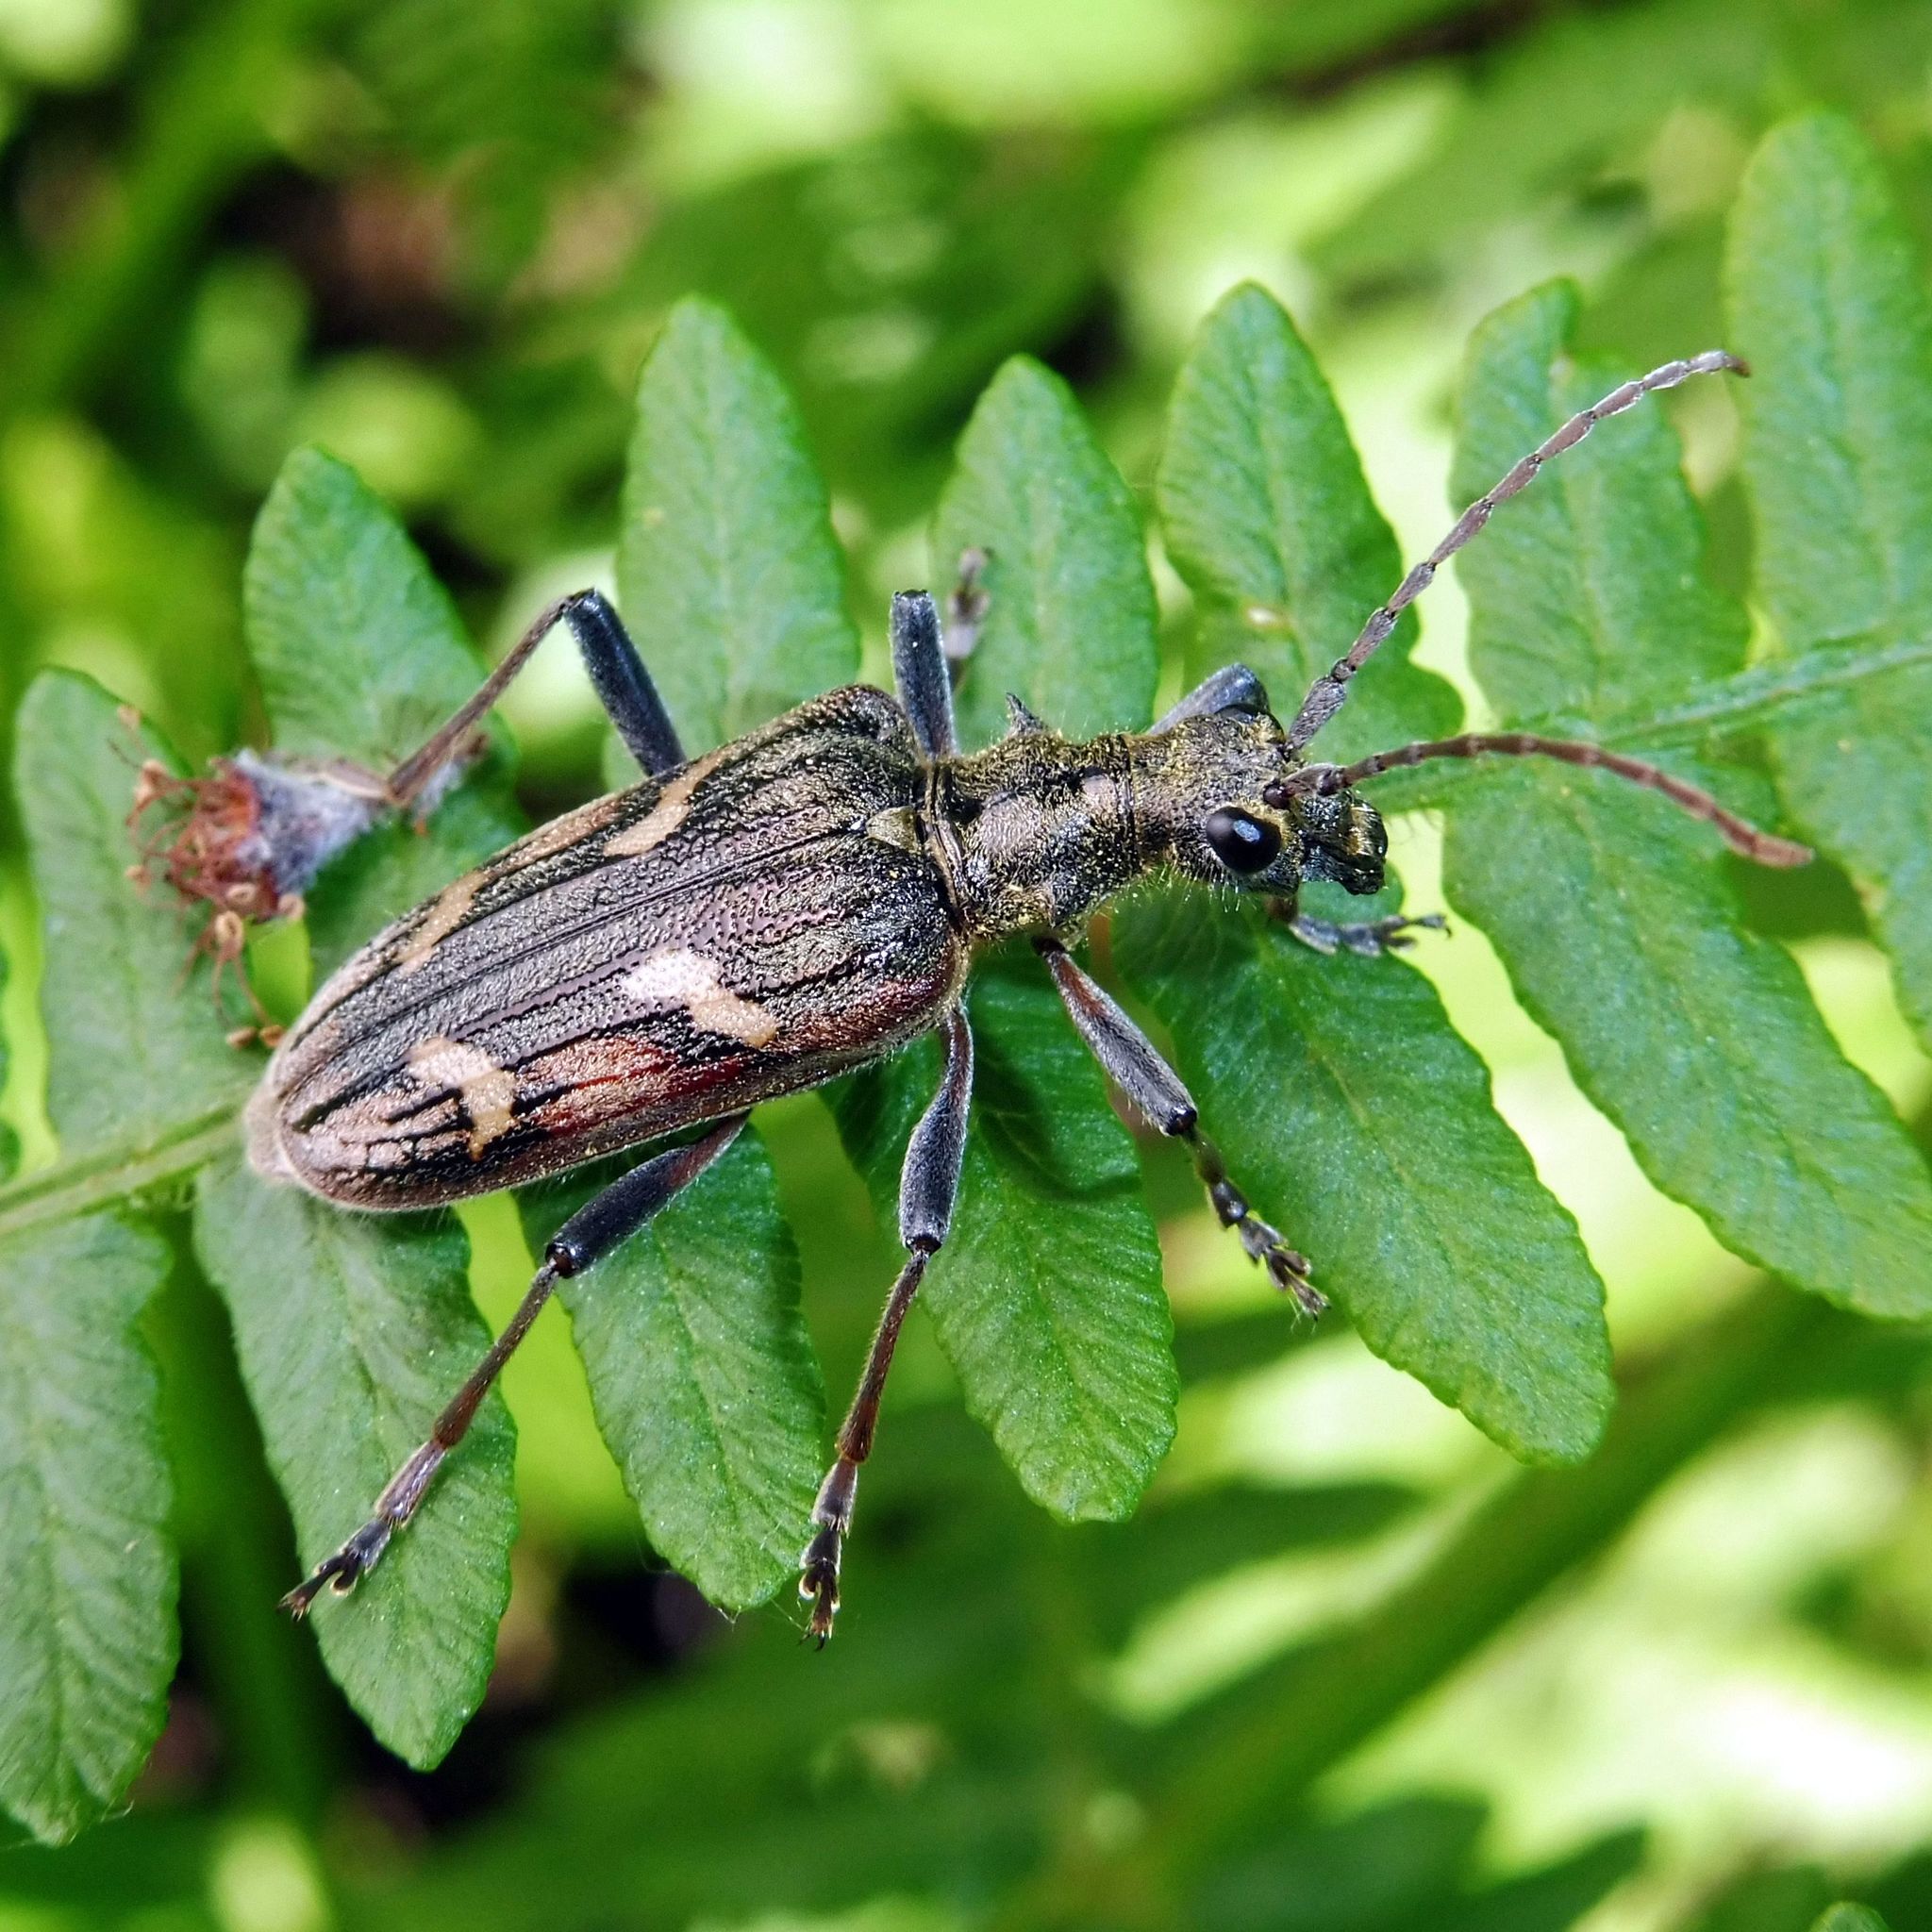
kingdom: Animalia
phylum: Arthropoda
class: Insecta
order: Coleoptera
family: Cerambycidae
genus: Rhagium
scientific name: Rhagium bifasciatum
